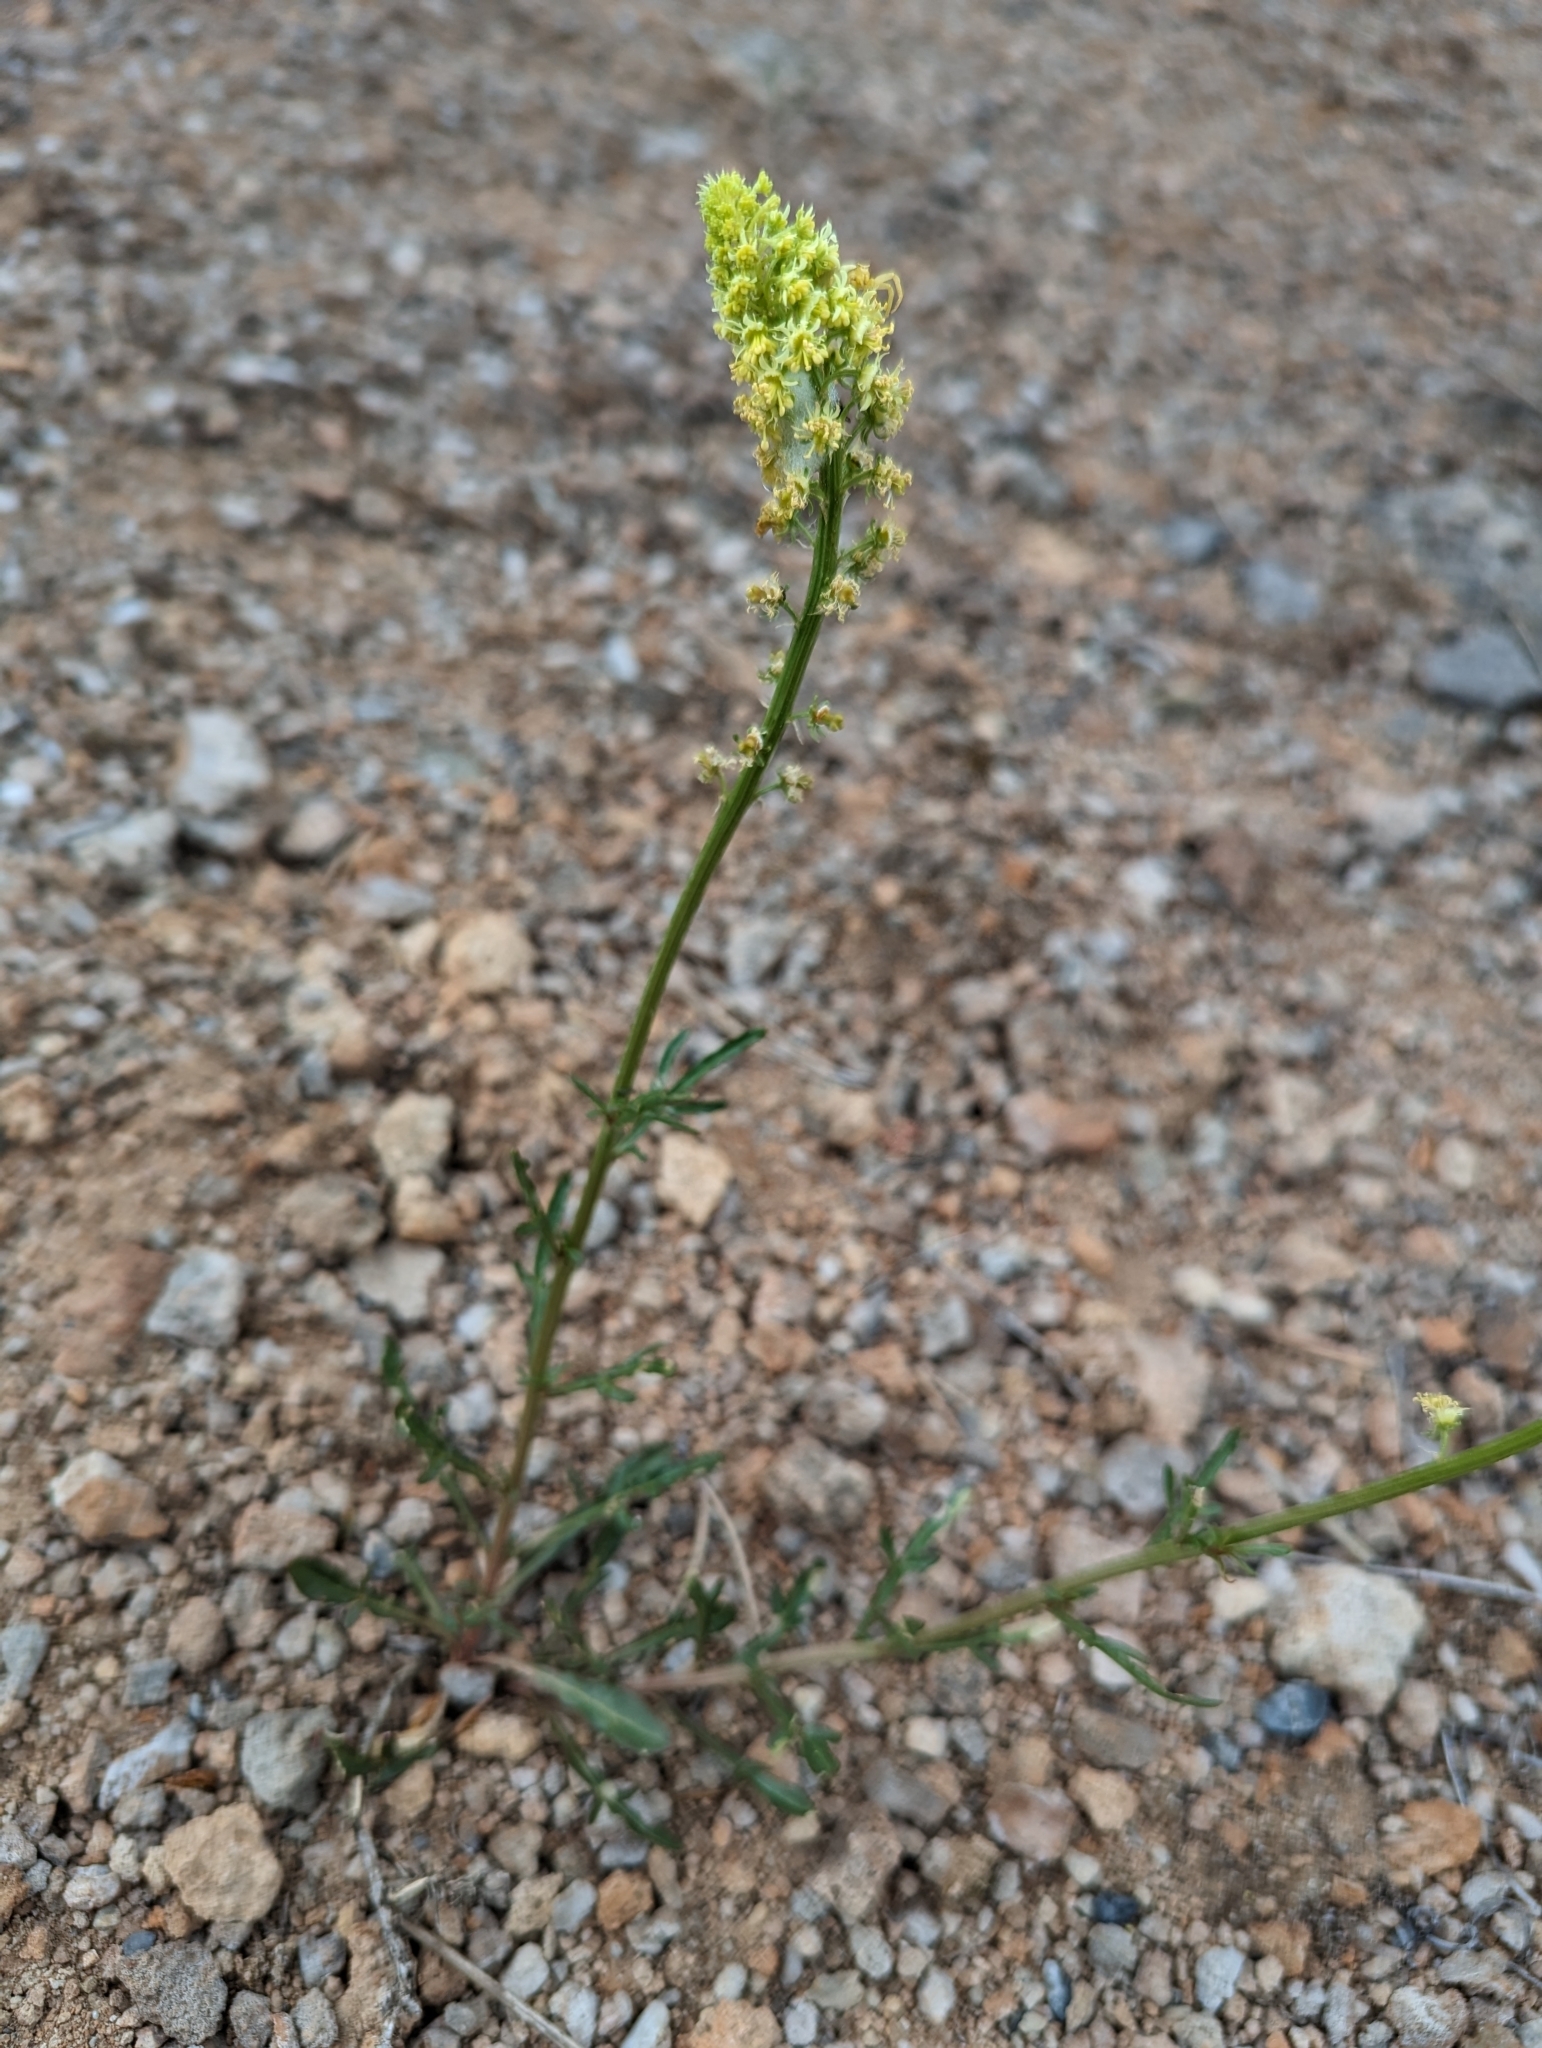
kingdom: Plantae
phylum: Tracheophyta
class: Magnoliopsida
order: Brassicales
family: Resedaceae
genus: Reseda
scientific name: Reseda lutea
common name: Wild mignonette
